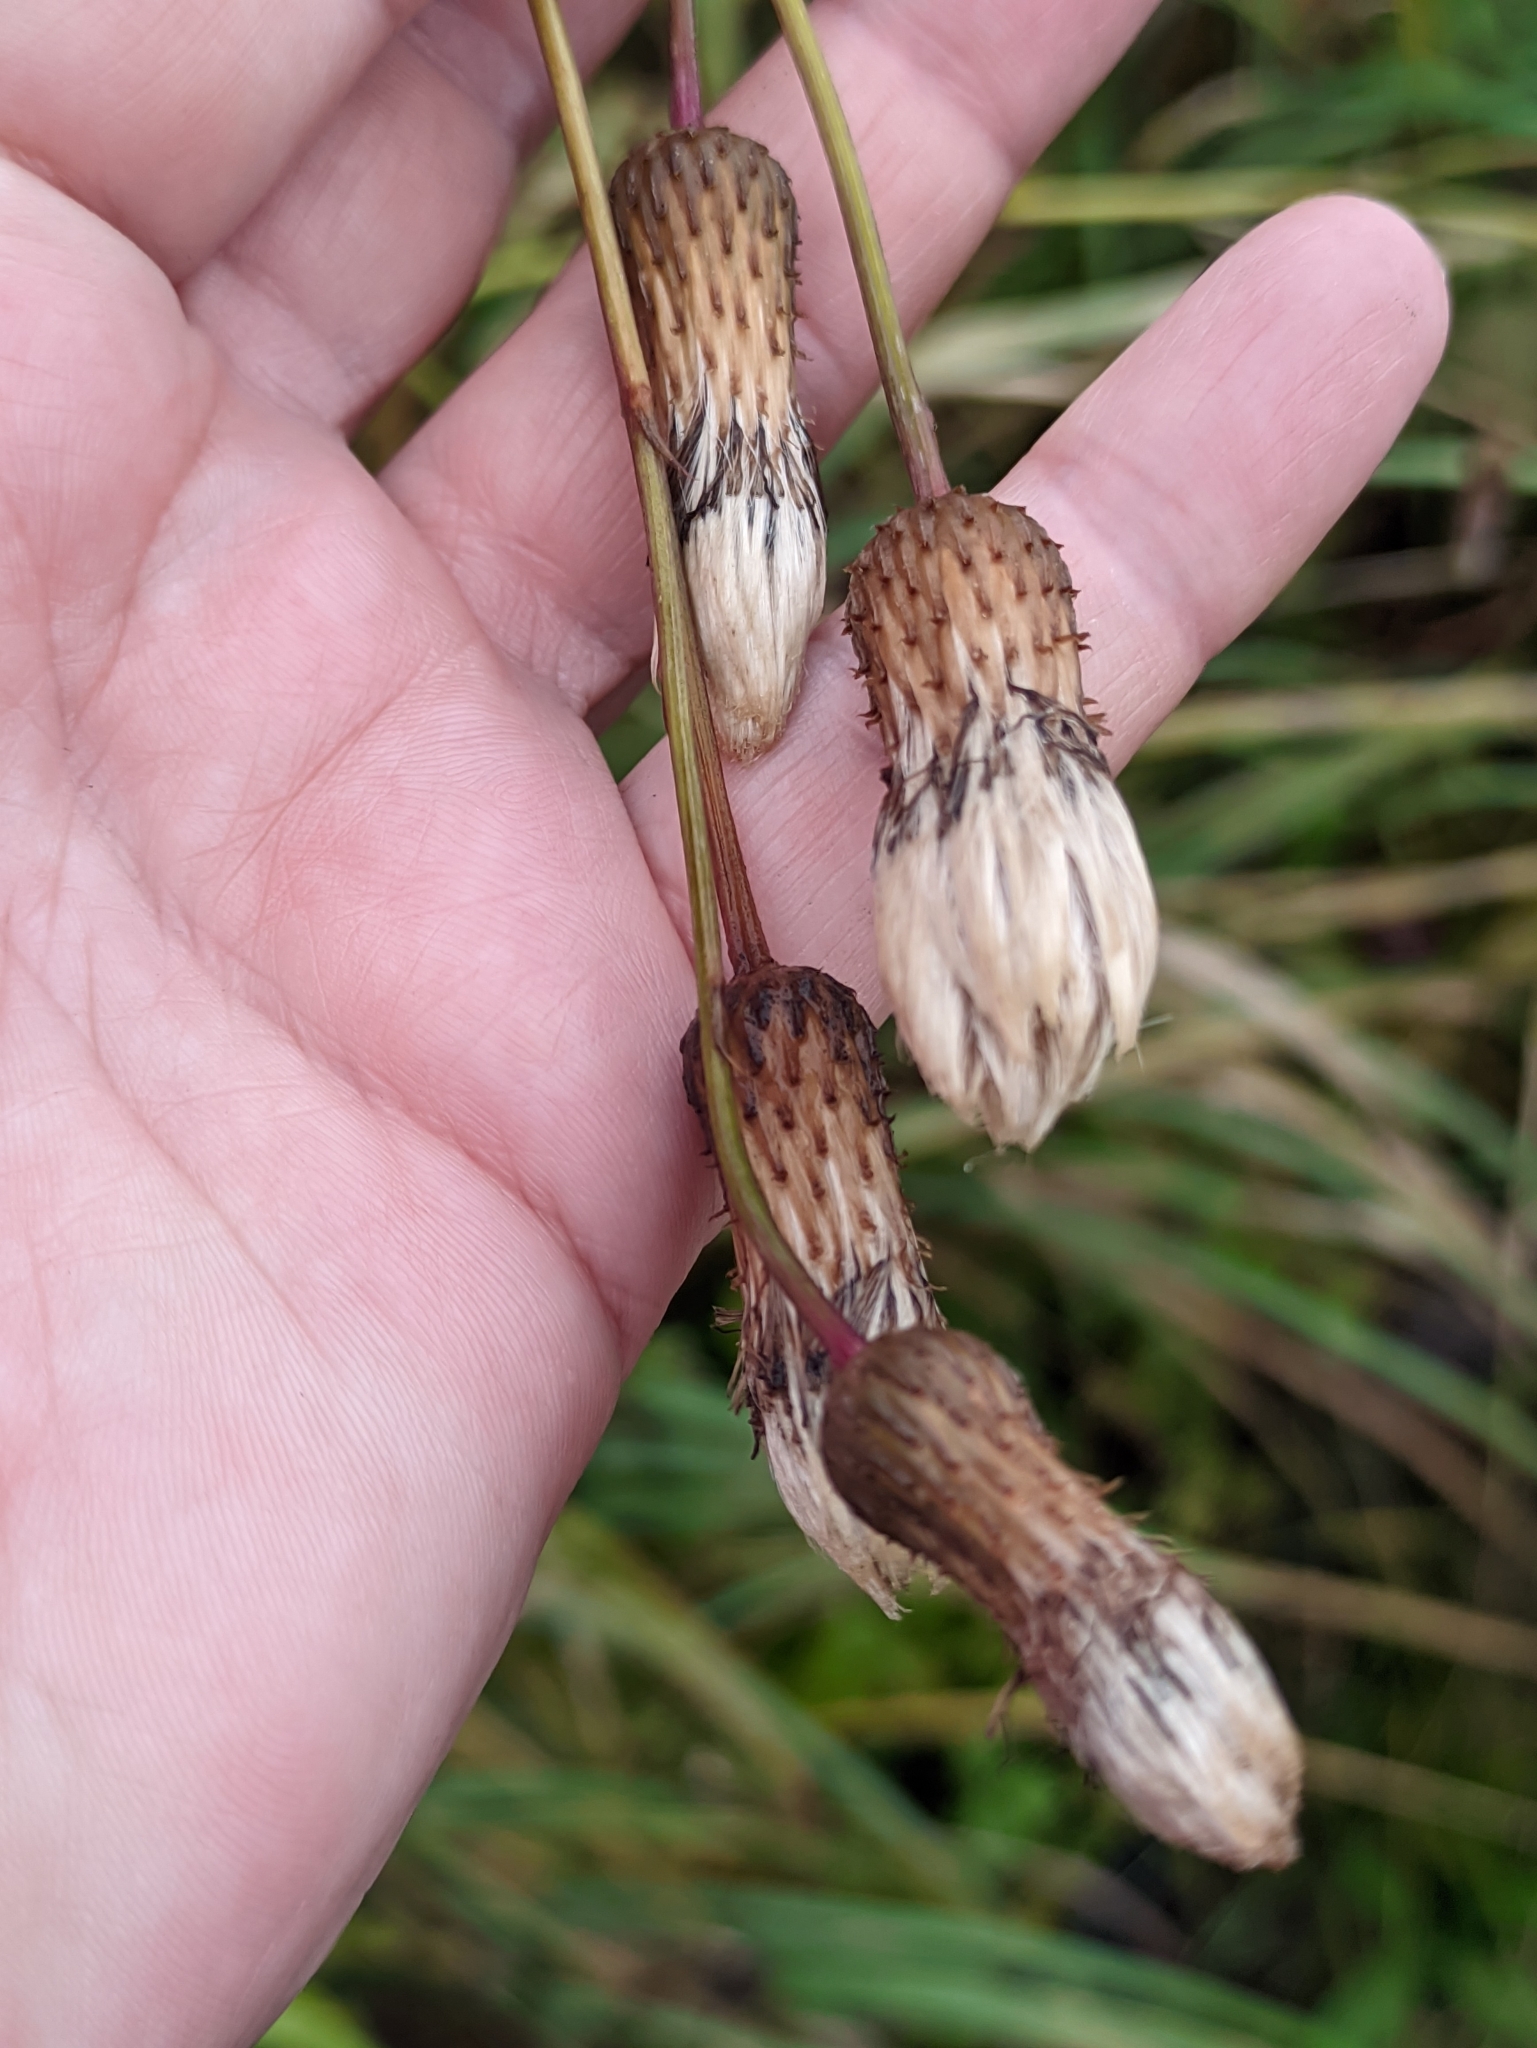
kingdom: Plantae
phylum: Tracheophyta
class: Magnoliopsida
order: Asterales
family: Asteraceae
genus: Cirsium
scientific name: Cirsium arvense
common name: Creeping thistle
